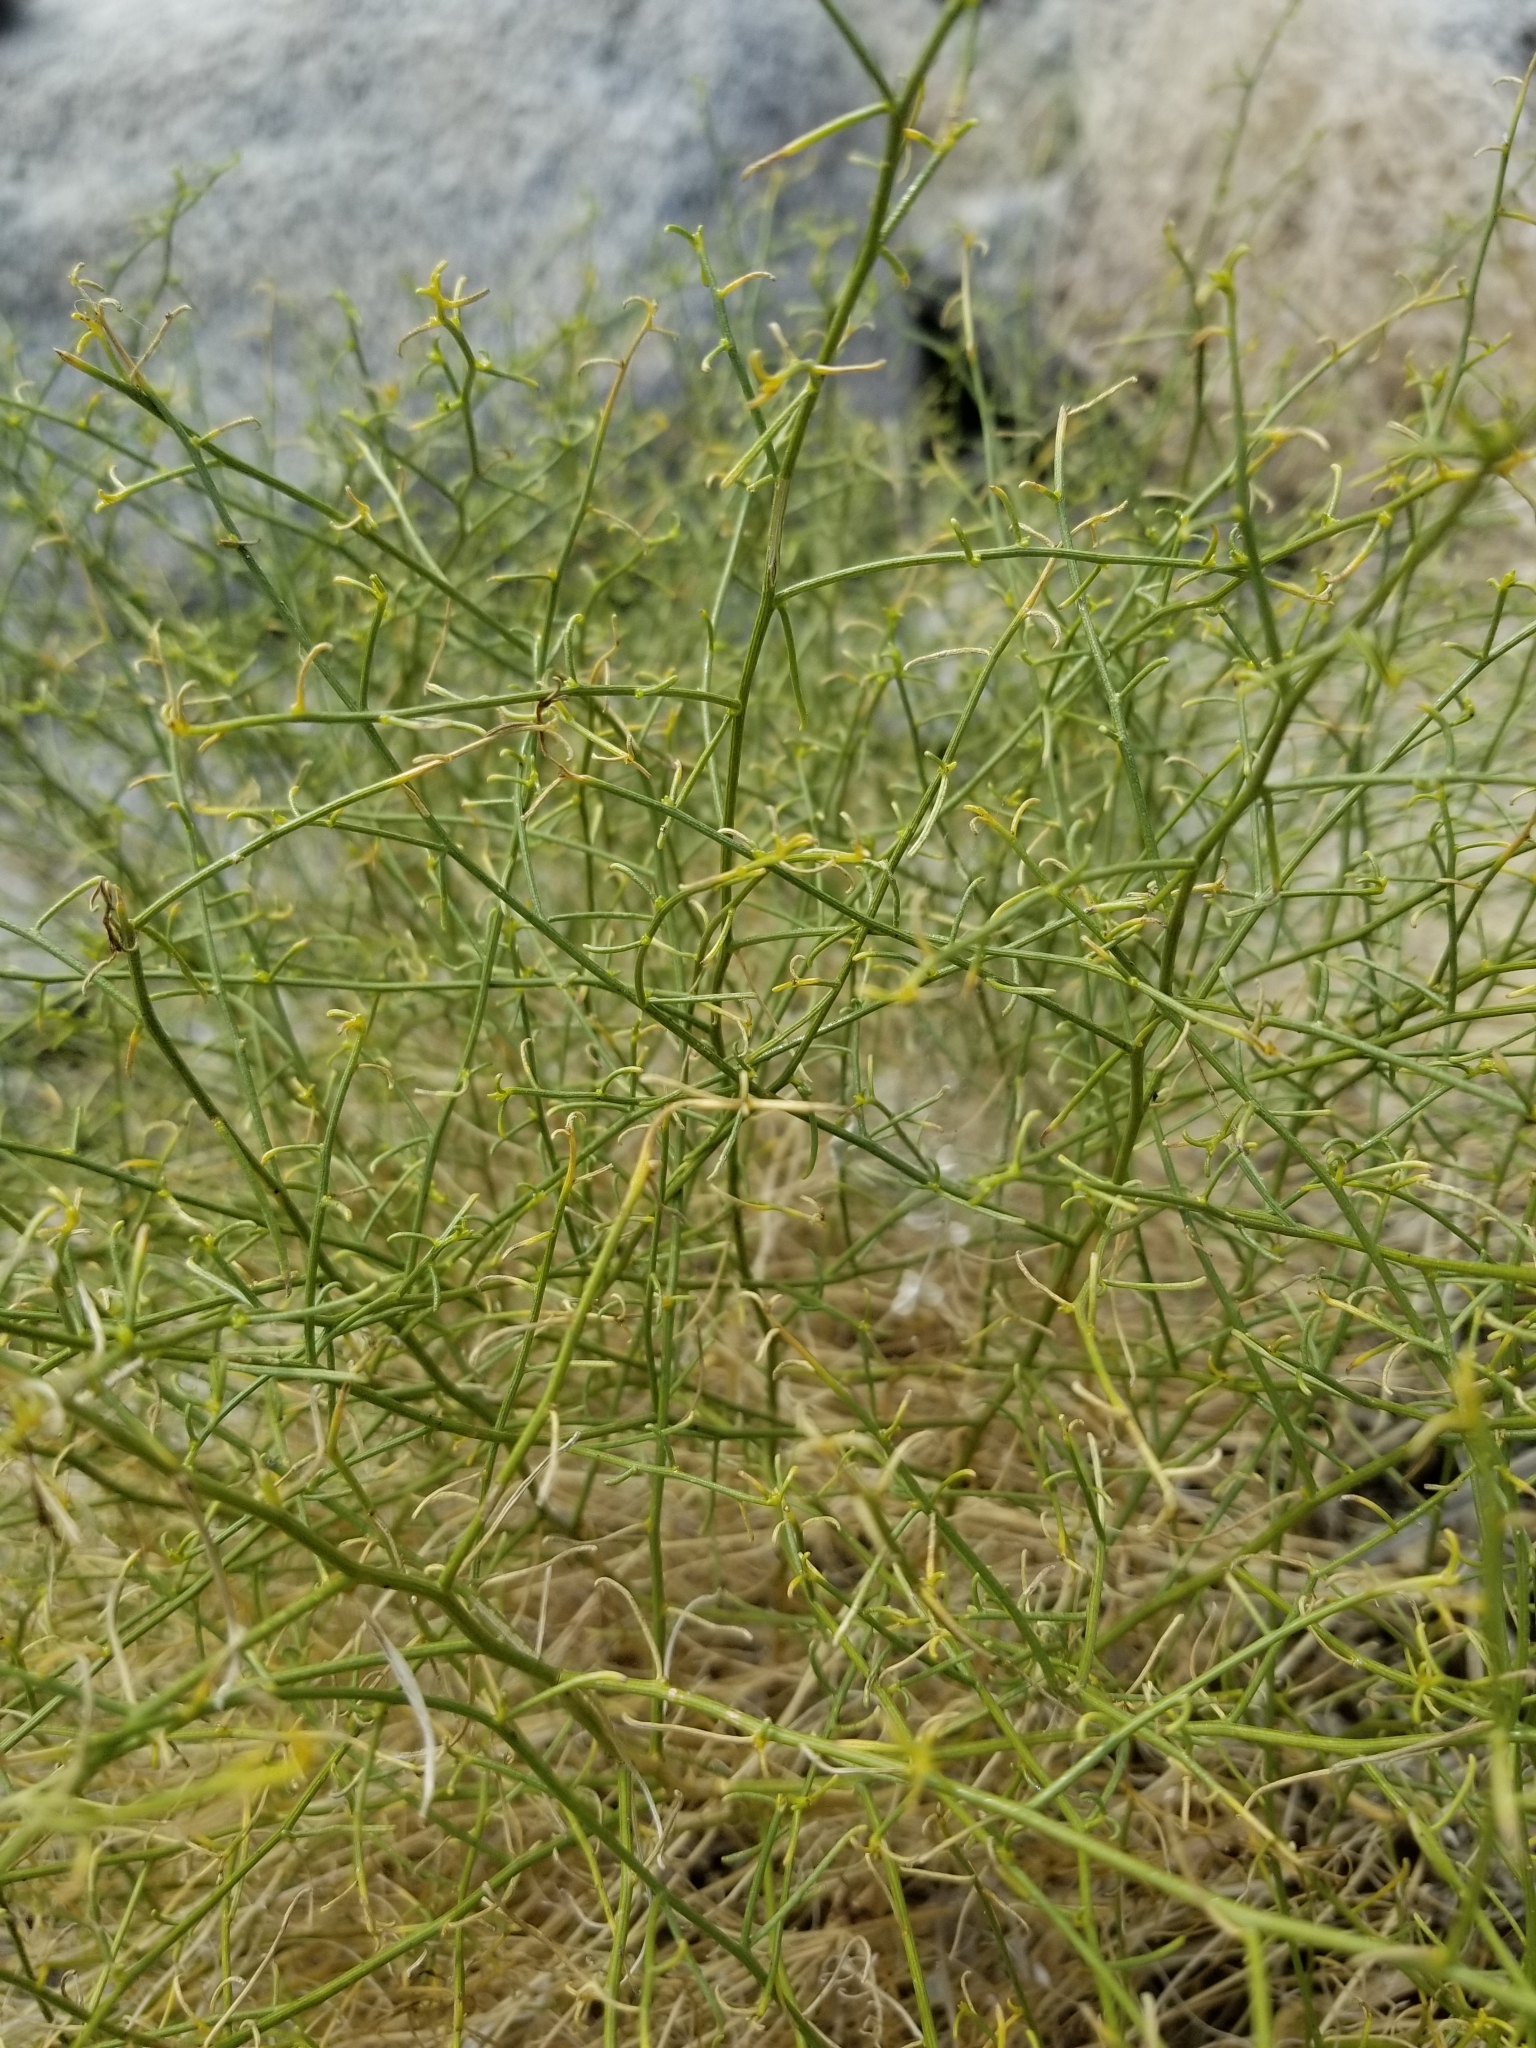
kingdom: Plantae
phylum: Tracheophyta
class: Magnoliopsida
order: Asterales
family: Asteraceae
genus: Ambrosia
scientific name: Ambrosia salsola
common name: Burrobrush
